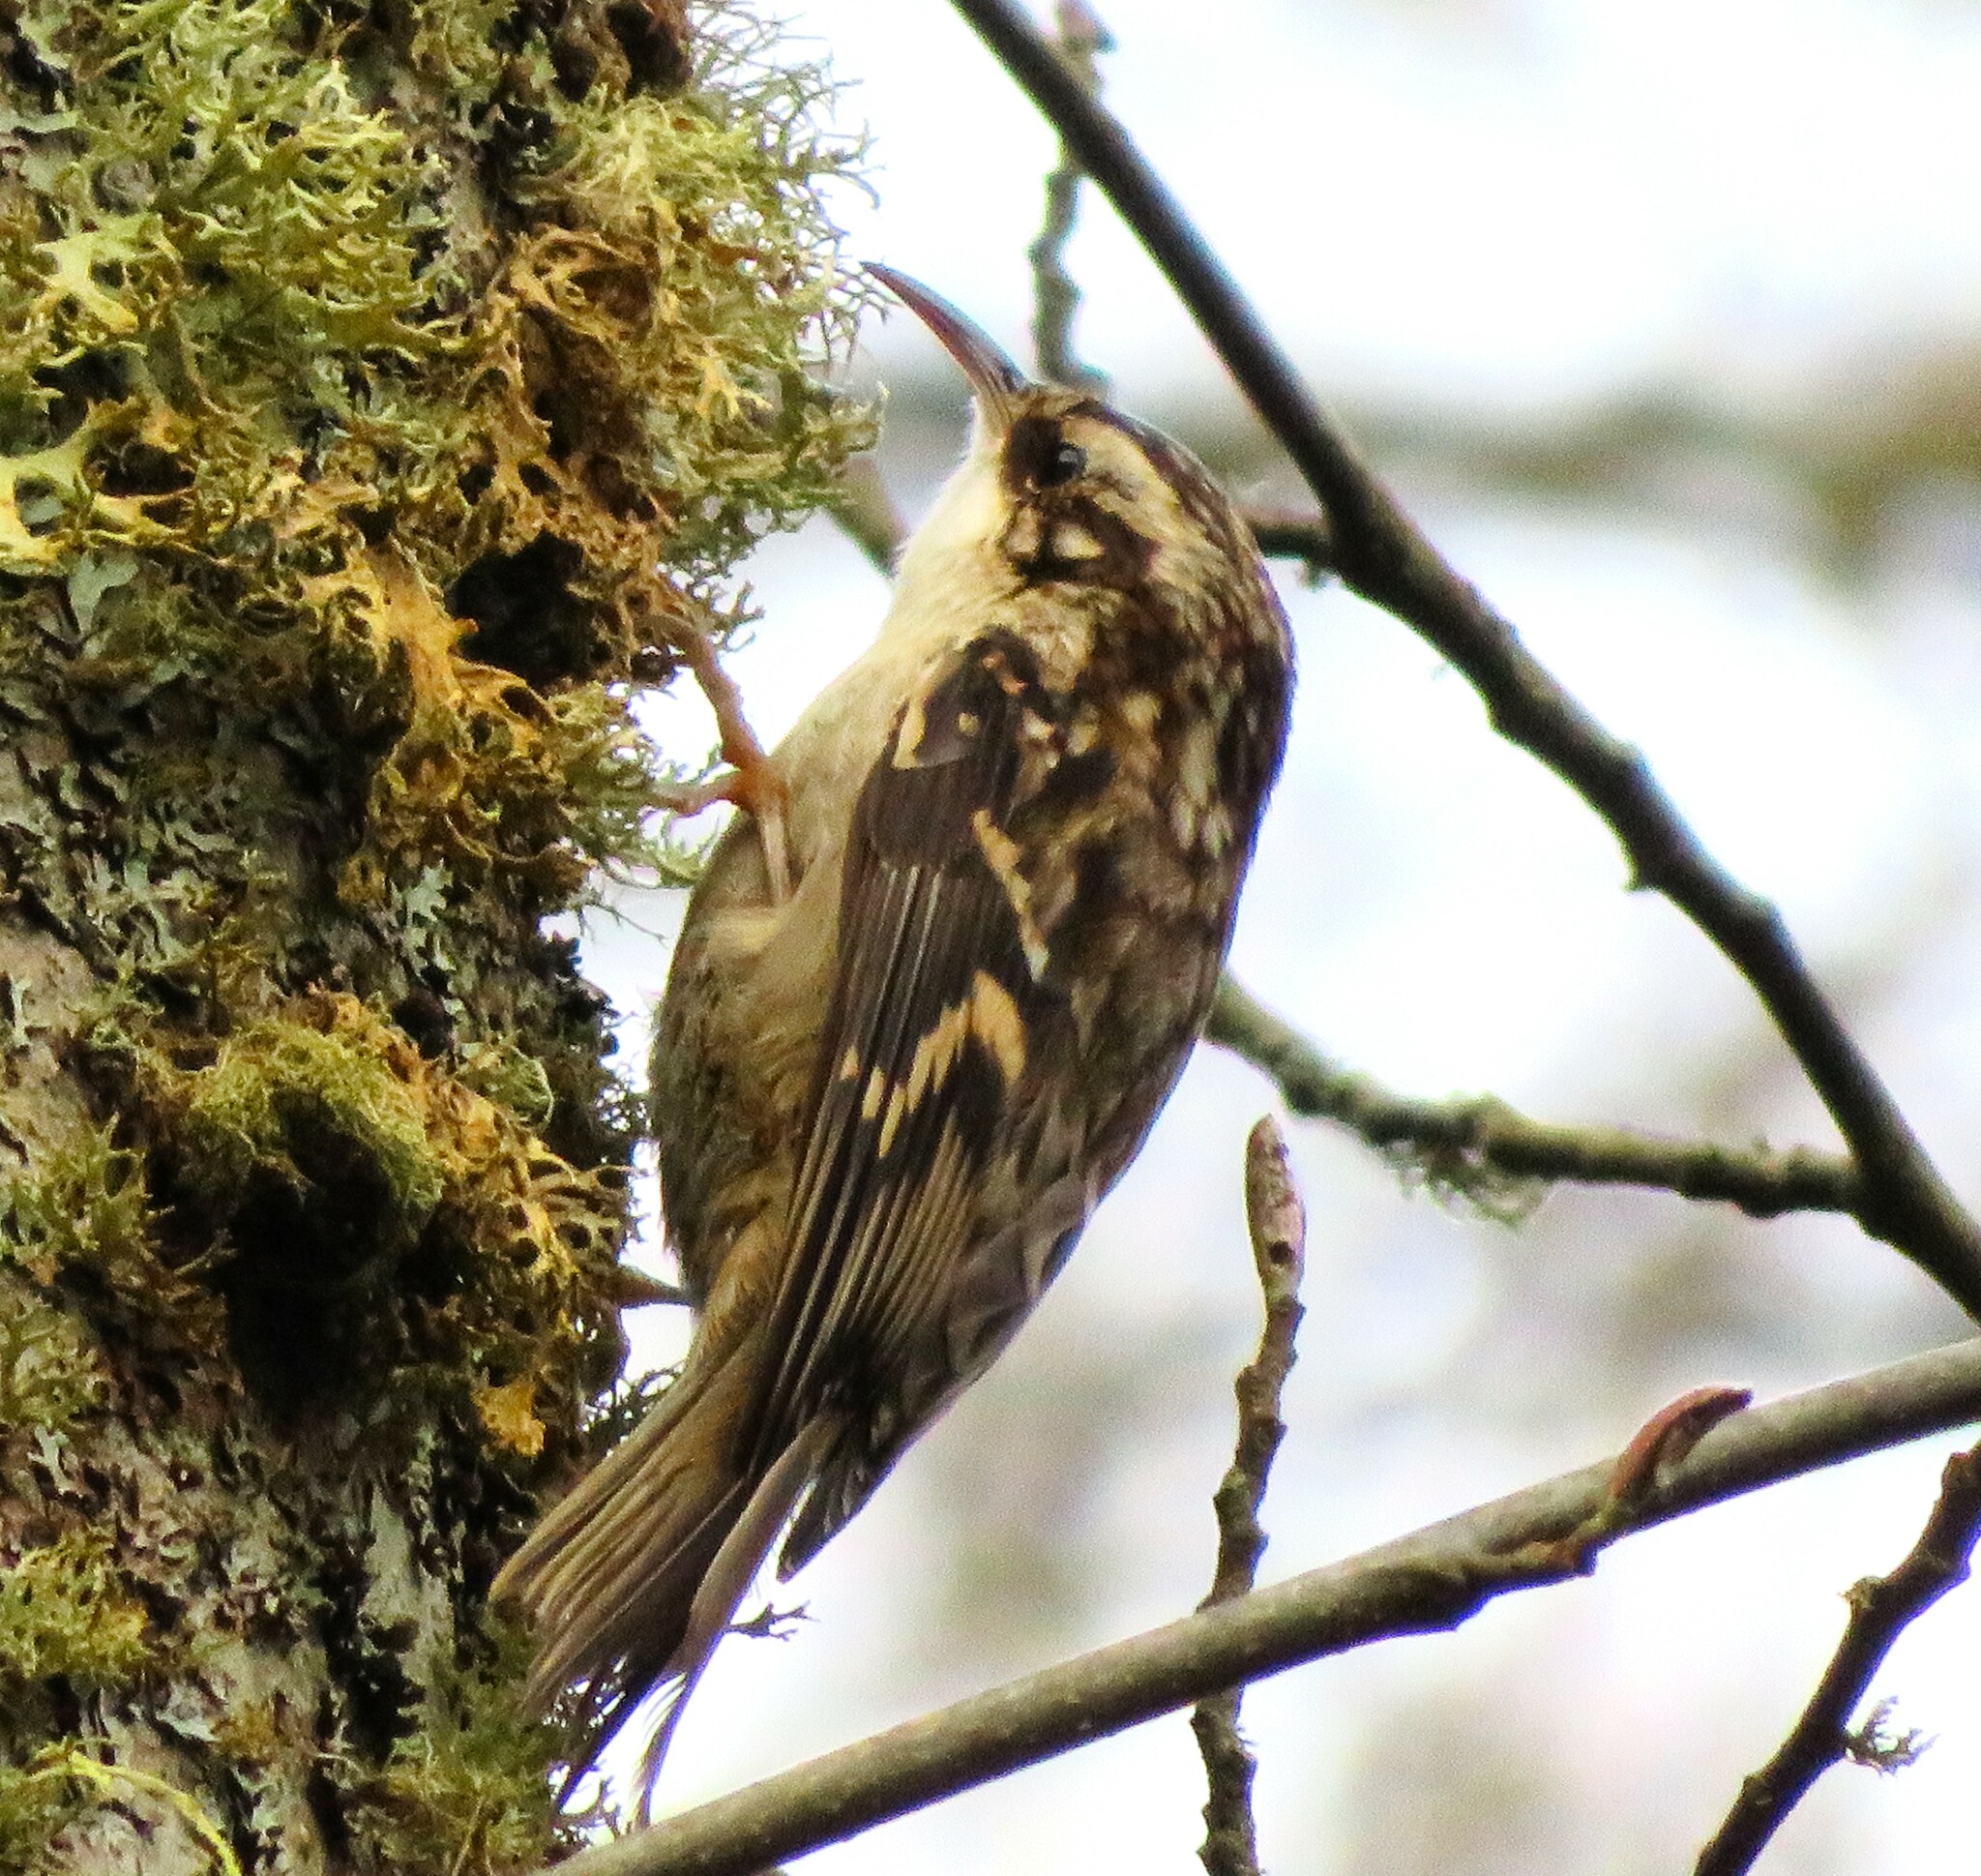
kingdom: Animalia
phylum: Chordata
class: Aves
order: Passeriformes
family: Certhiidae
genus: Certhia
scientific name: Certhia americana
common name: Brown creeper
